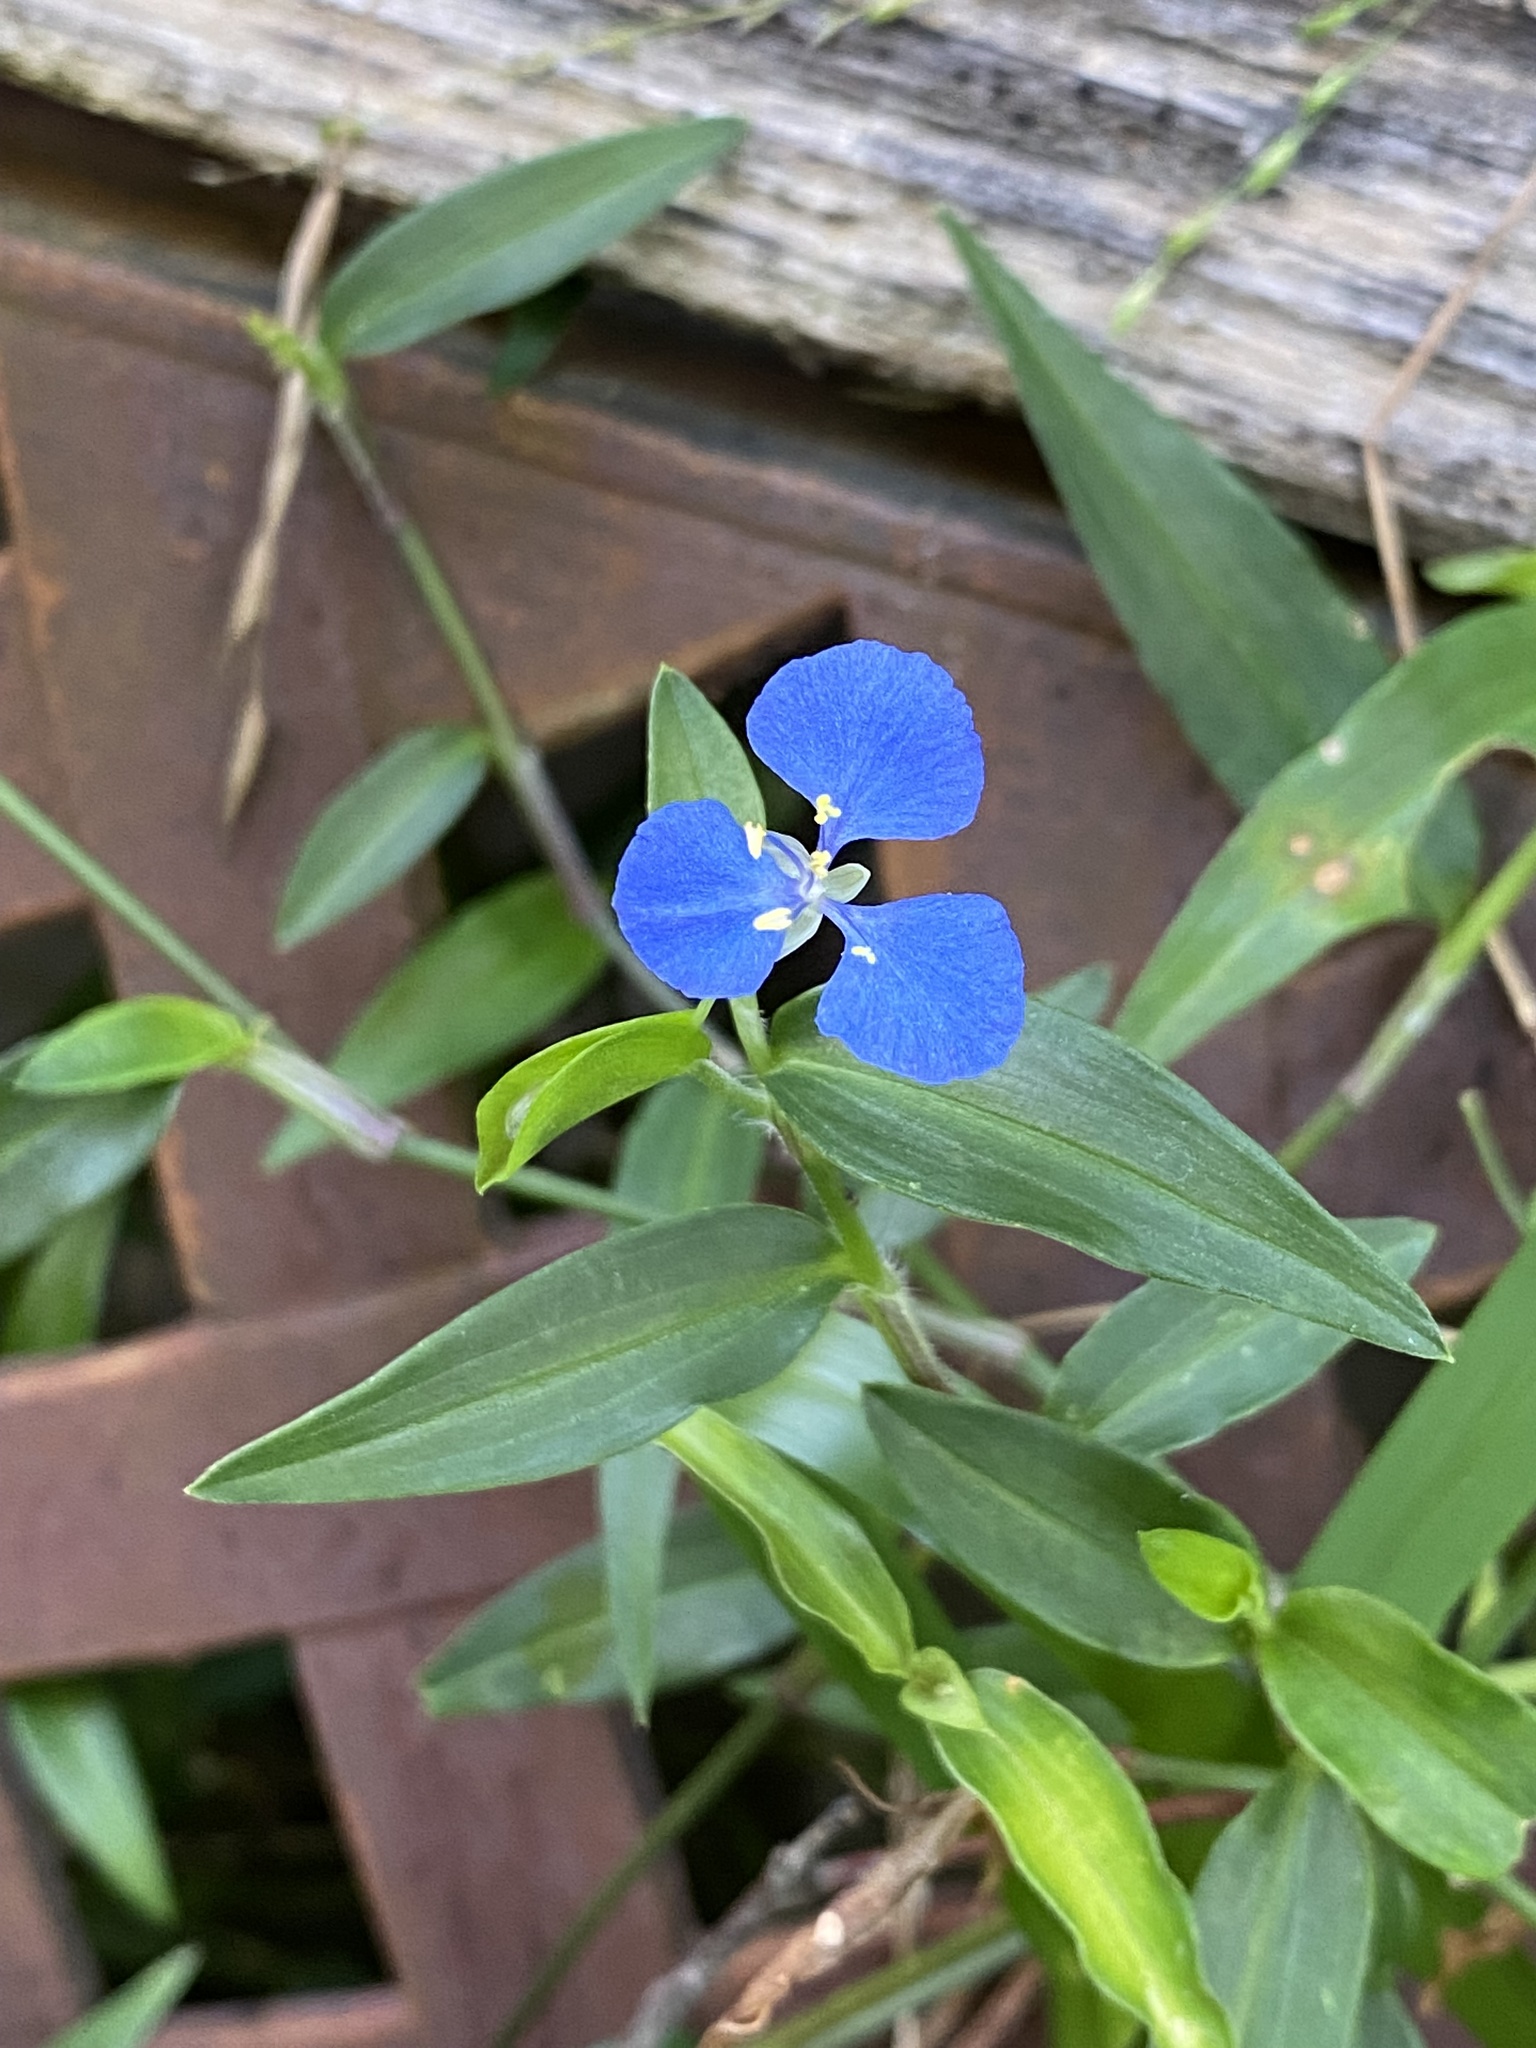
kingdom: Plantae
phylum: Tracheophyta
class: Liliopsida
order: Commelinales
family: Commelinaceae
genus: Commelina
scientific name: Commelina cyanea
